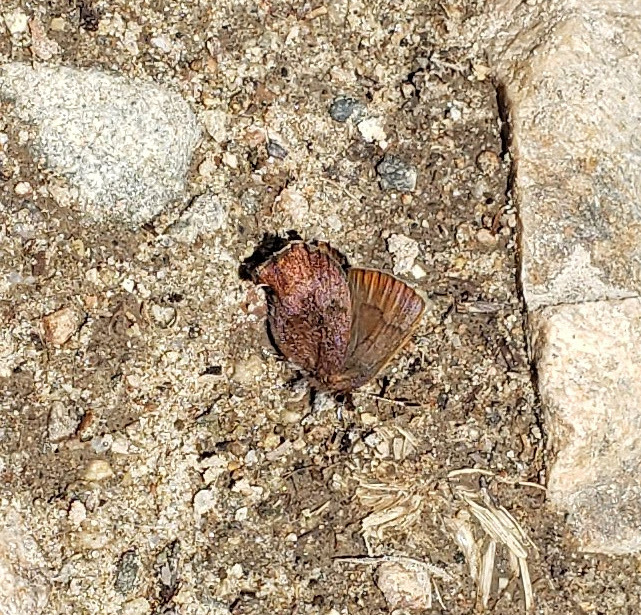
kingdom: Animalia
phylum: Arthropoda
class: Insecta
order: Lepidoptera
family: Lycaenidae
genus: Incisalia
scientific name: Incisalia irioides
